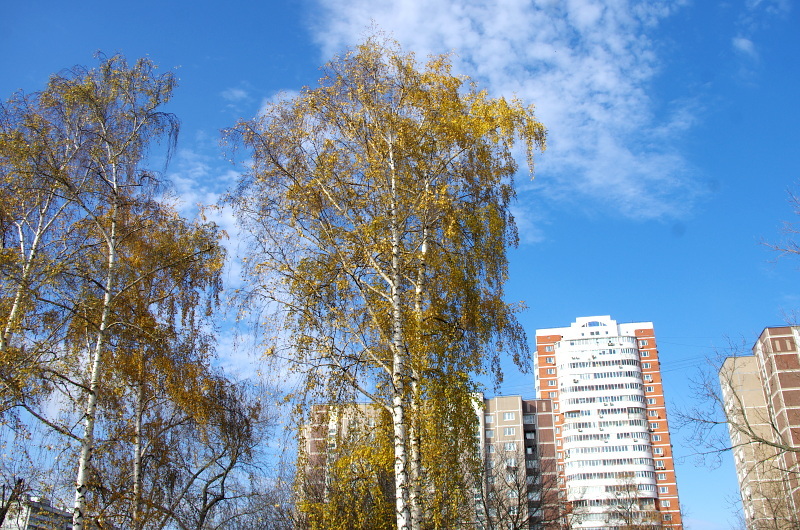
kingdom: Plantae
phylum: Tracheophyta
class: Magnoliopsida
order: Fagales
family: Betulaceae
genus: Betula
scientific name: Betula pendula
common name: Silver birch
